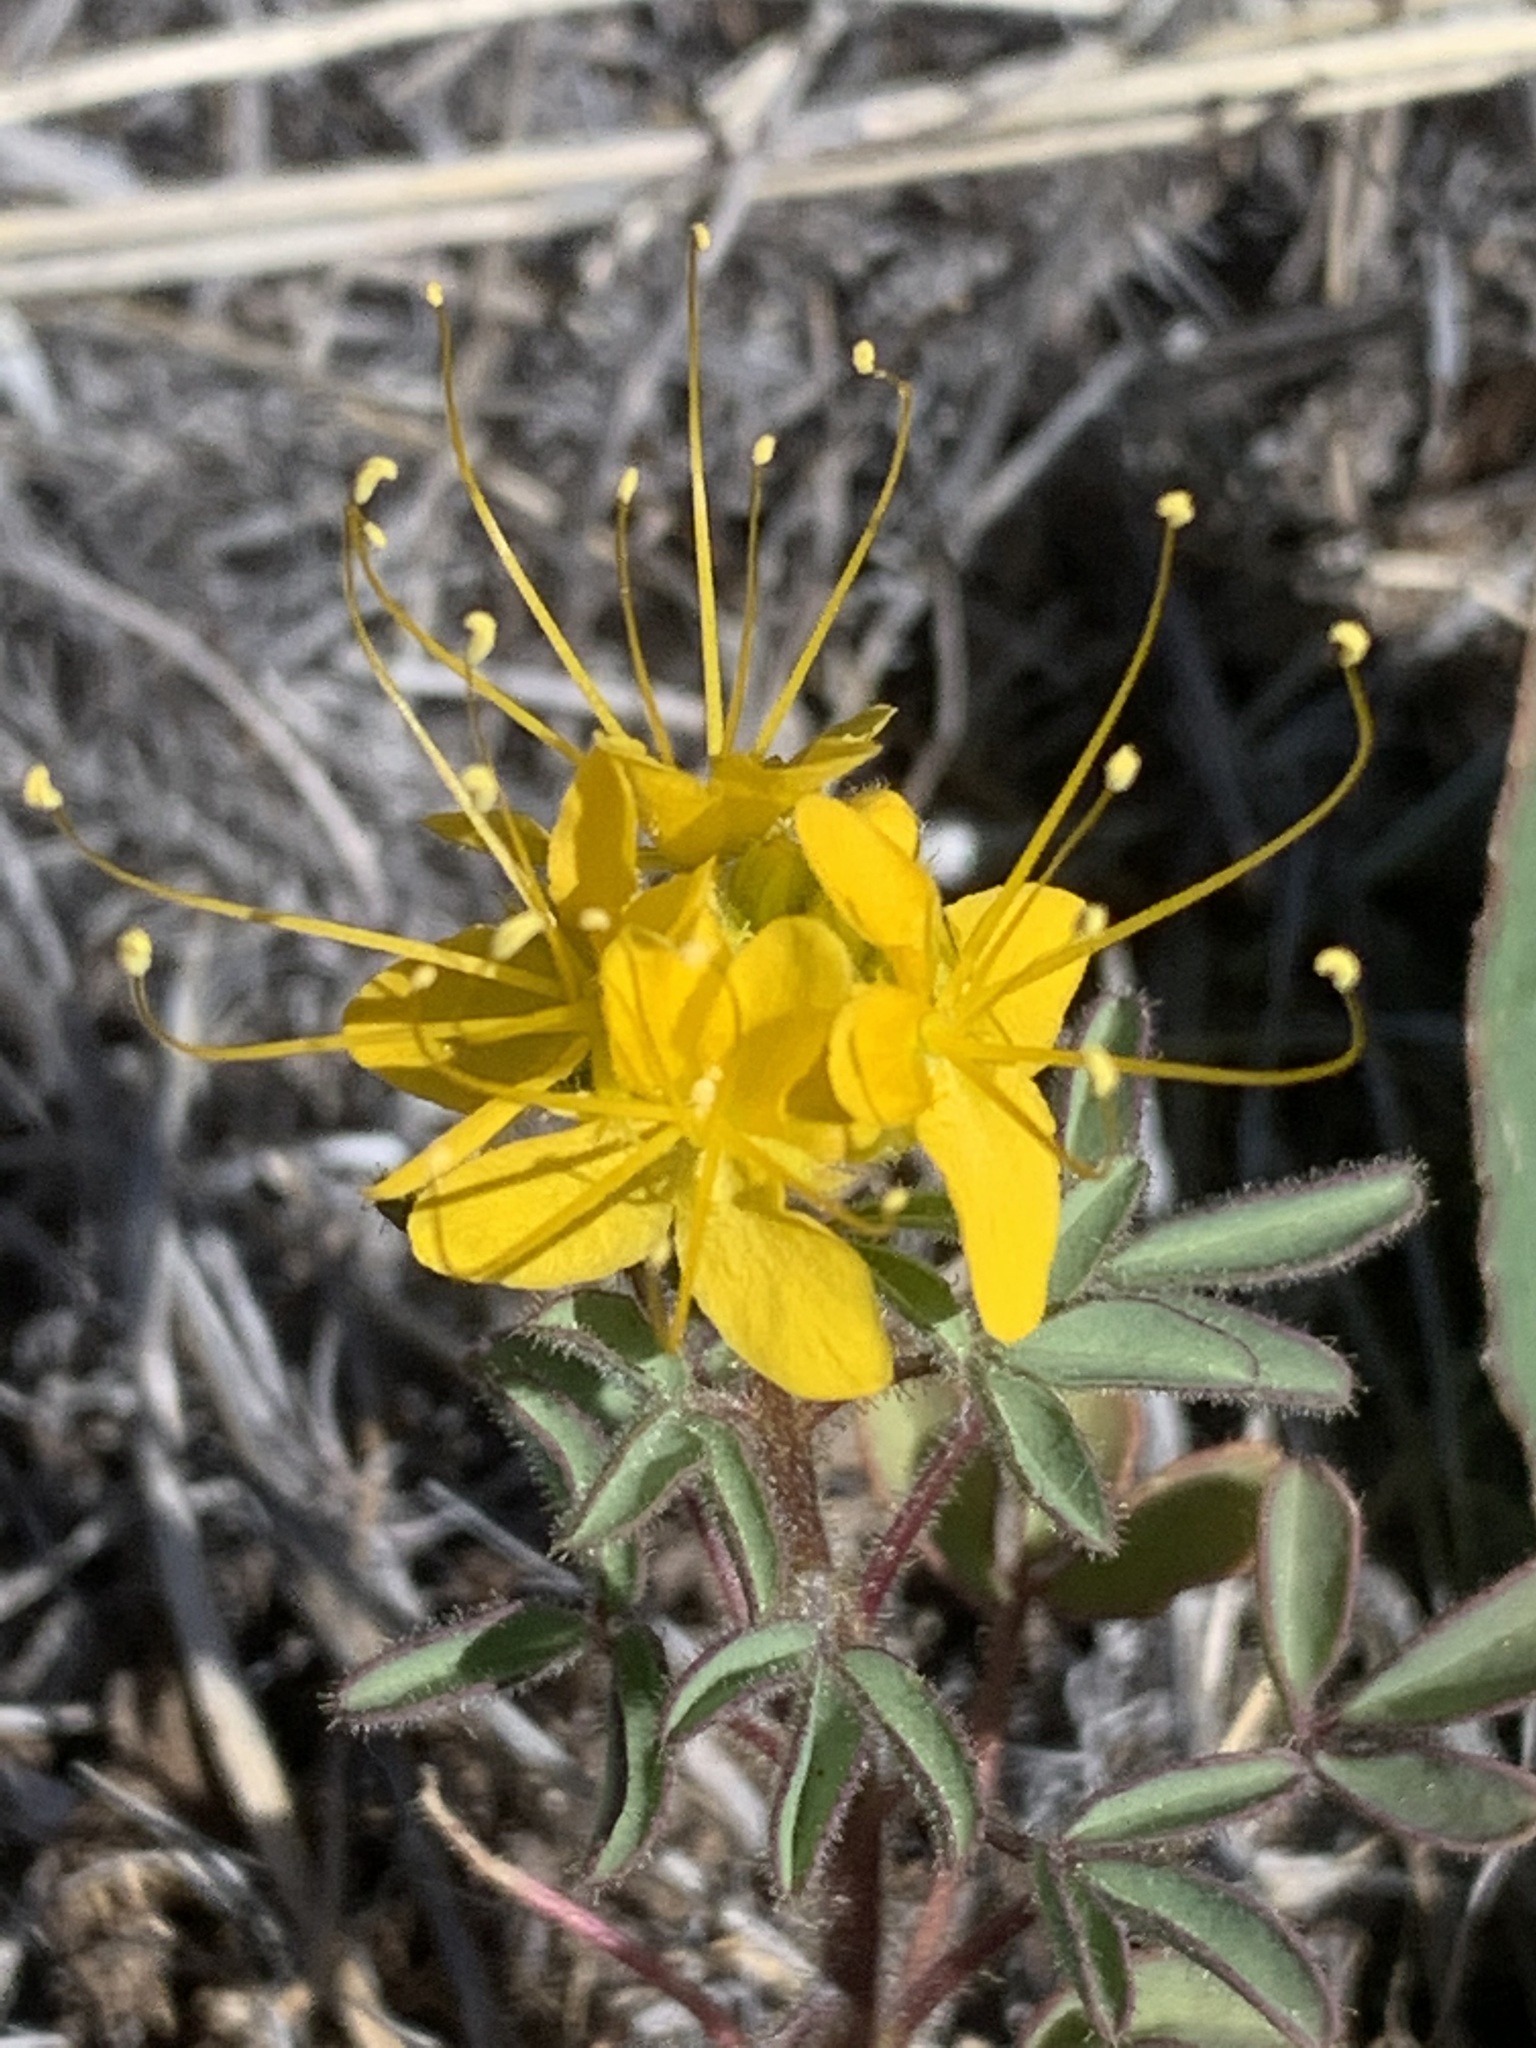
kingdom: Plantae
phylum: Tracheophyta
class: Magnoliopsida
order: Brassicales
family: Cleomaceae
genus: Cleomella
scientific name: Cleomella lutea
